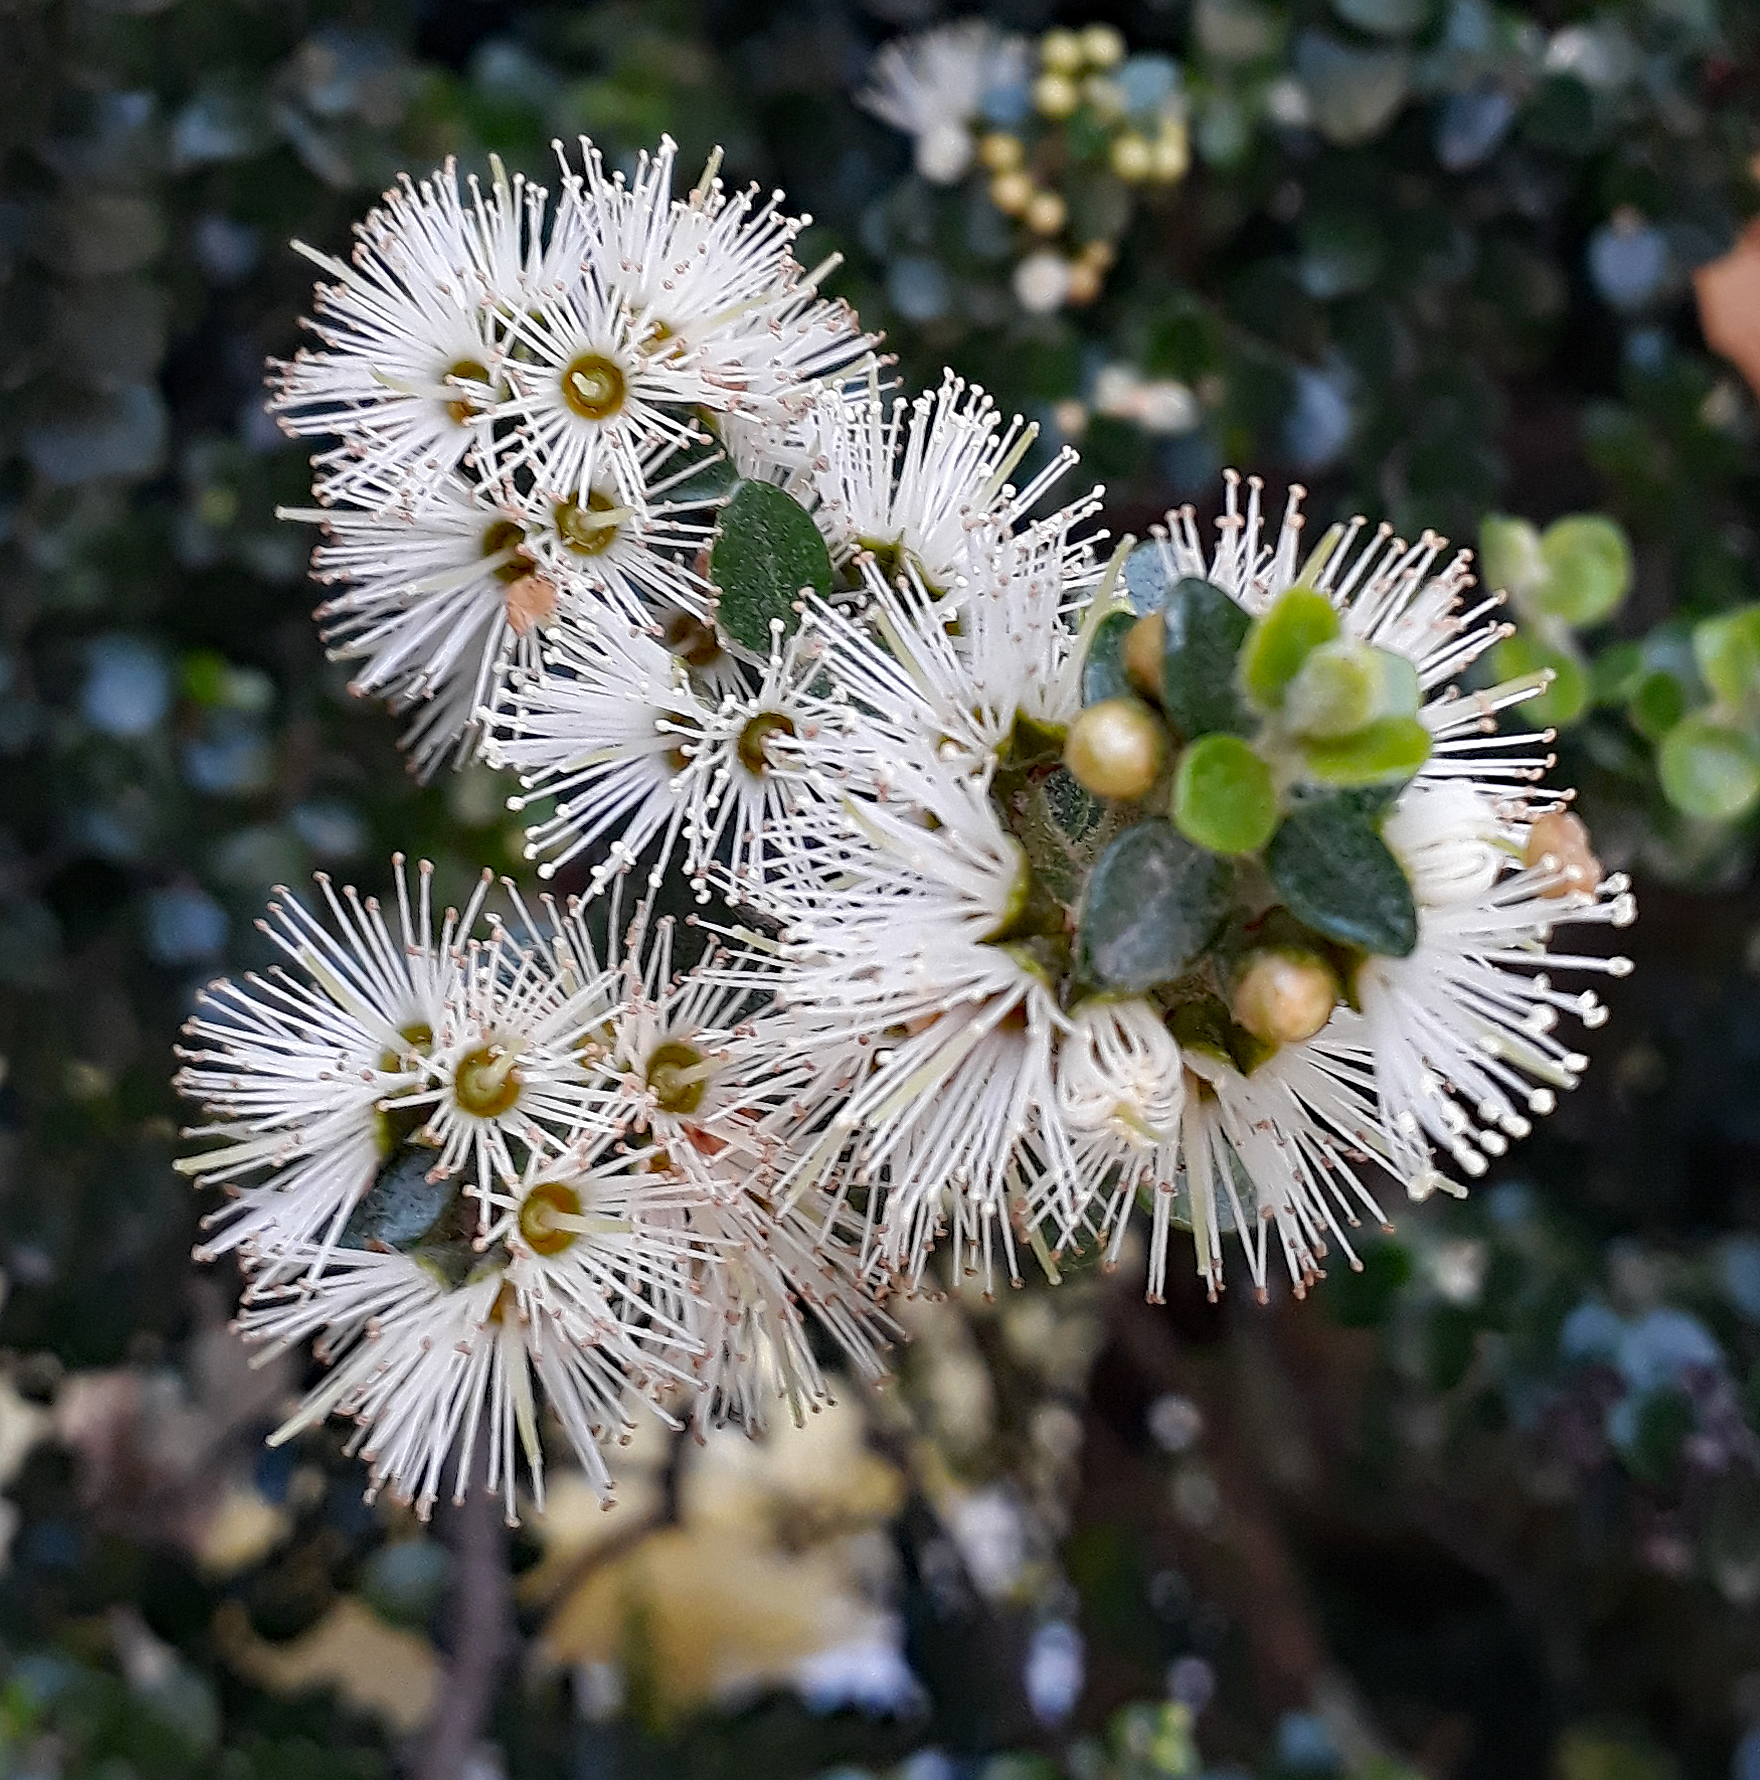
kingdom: Plantae
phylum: Tracheophyta
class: Magnoliopsida
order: Myrtales
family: Myrtaceae
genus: Metrosideros
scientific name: Metrosideros perforata
